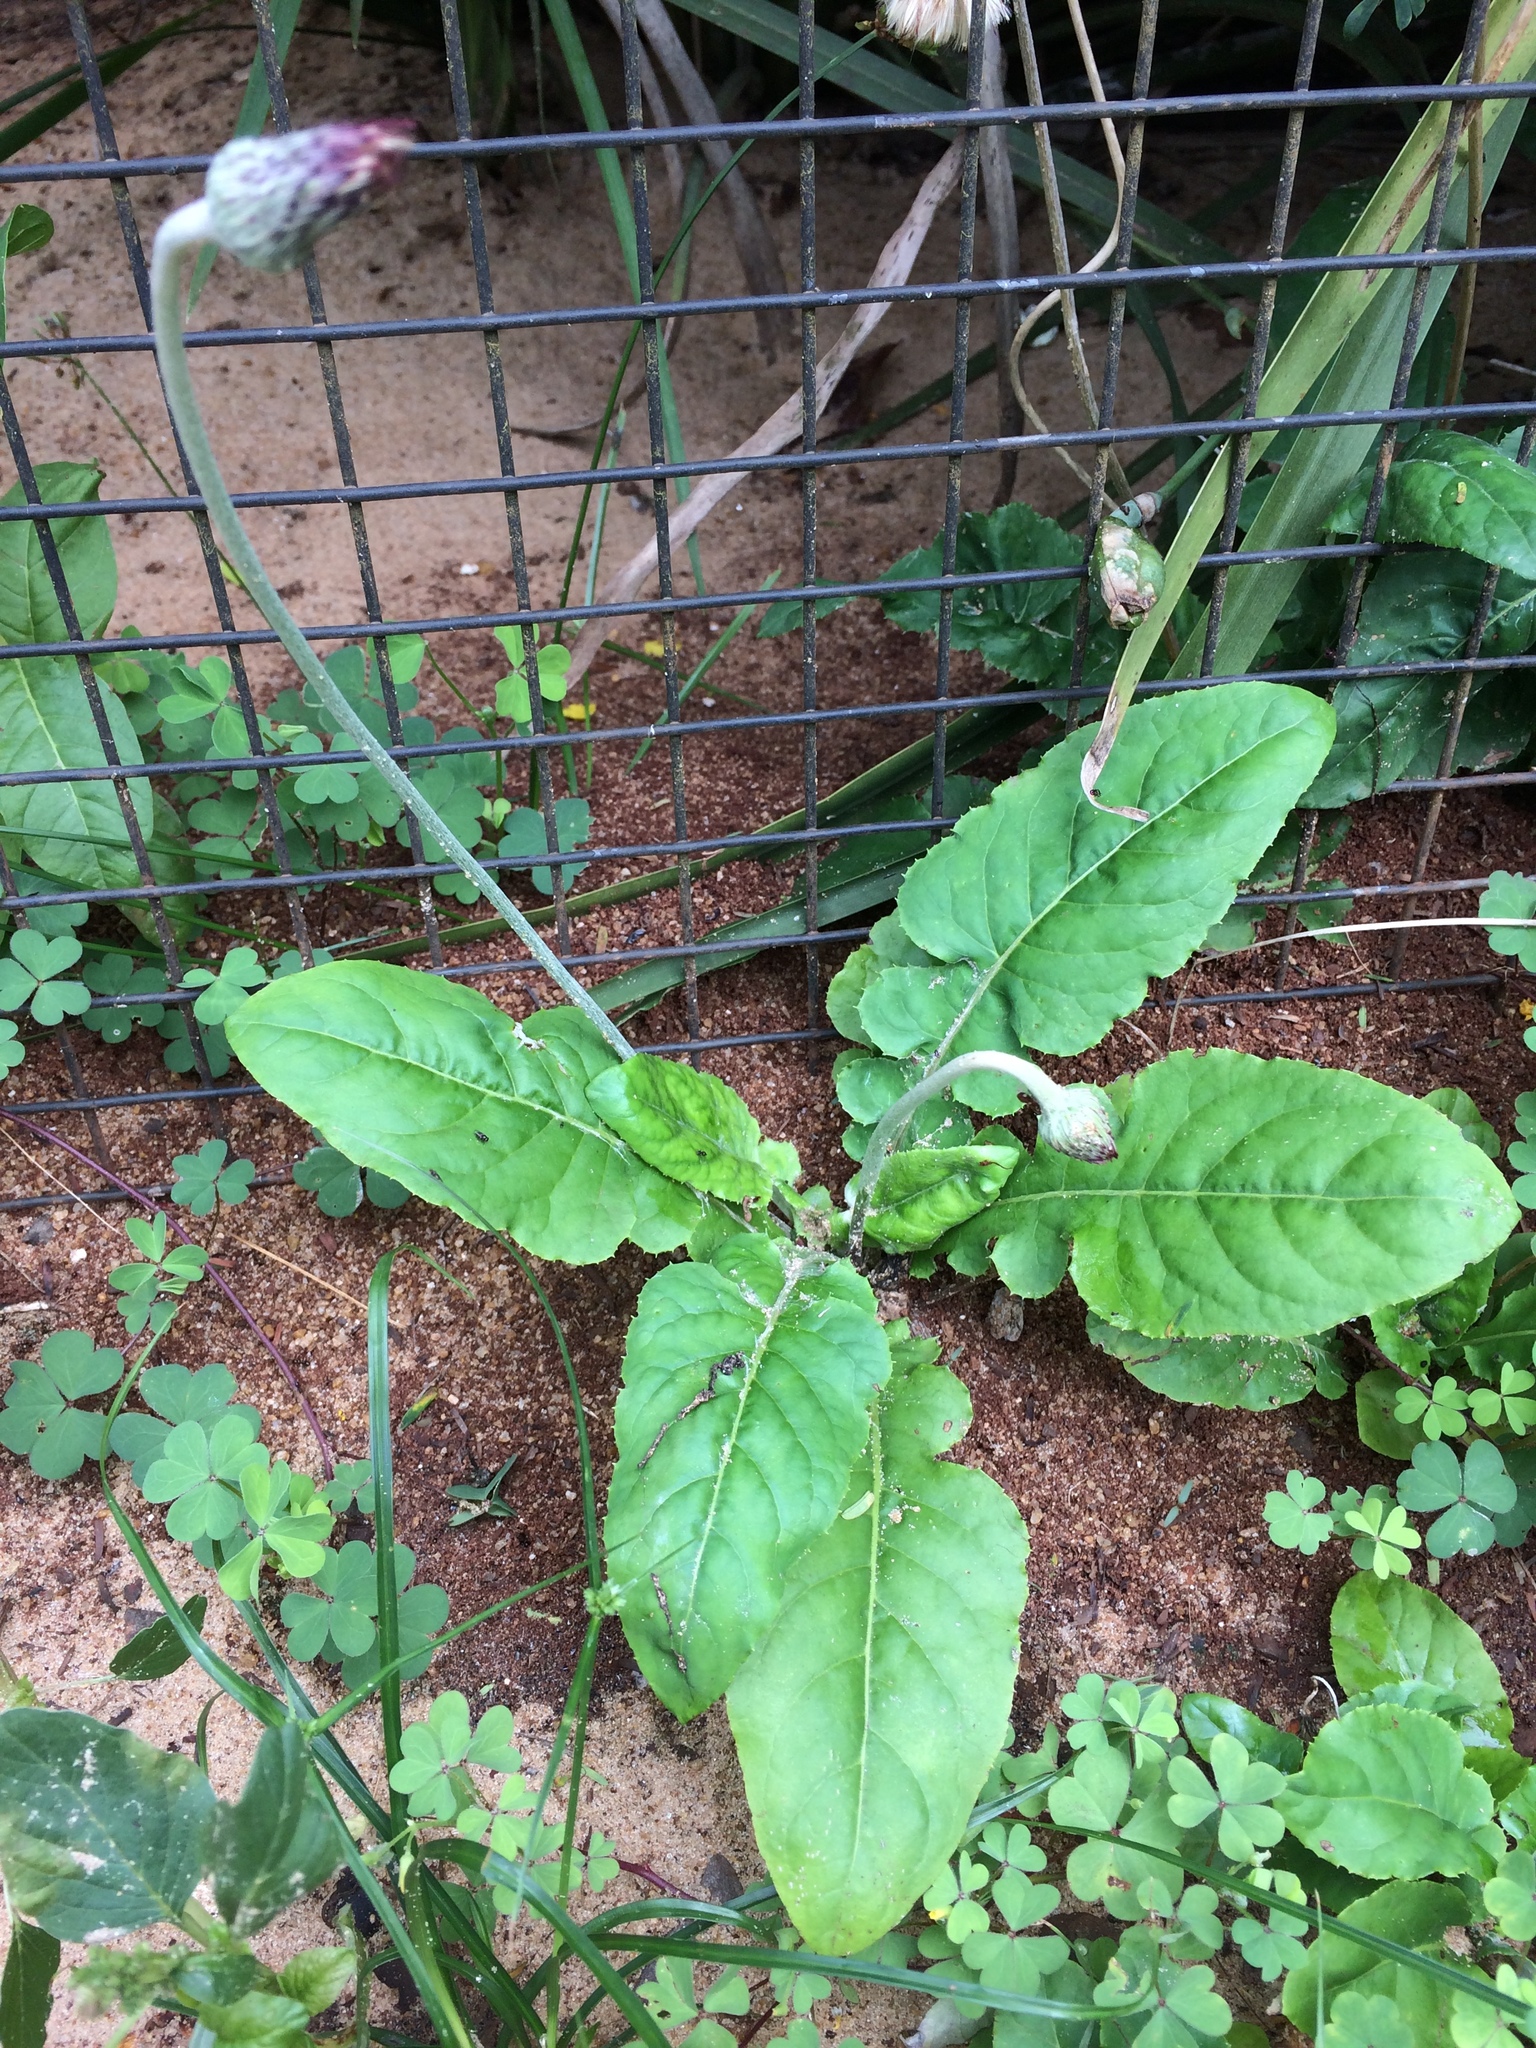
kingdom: Plantae
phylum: Tracheophyta
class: Magnoliopsida
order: Asterales
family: Asteraceae
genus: Chaptalia
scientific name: Chaptalia nutans
